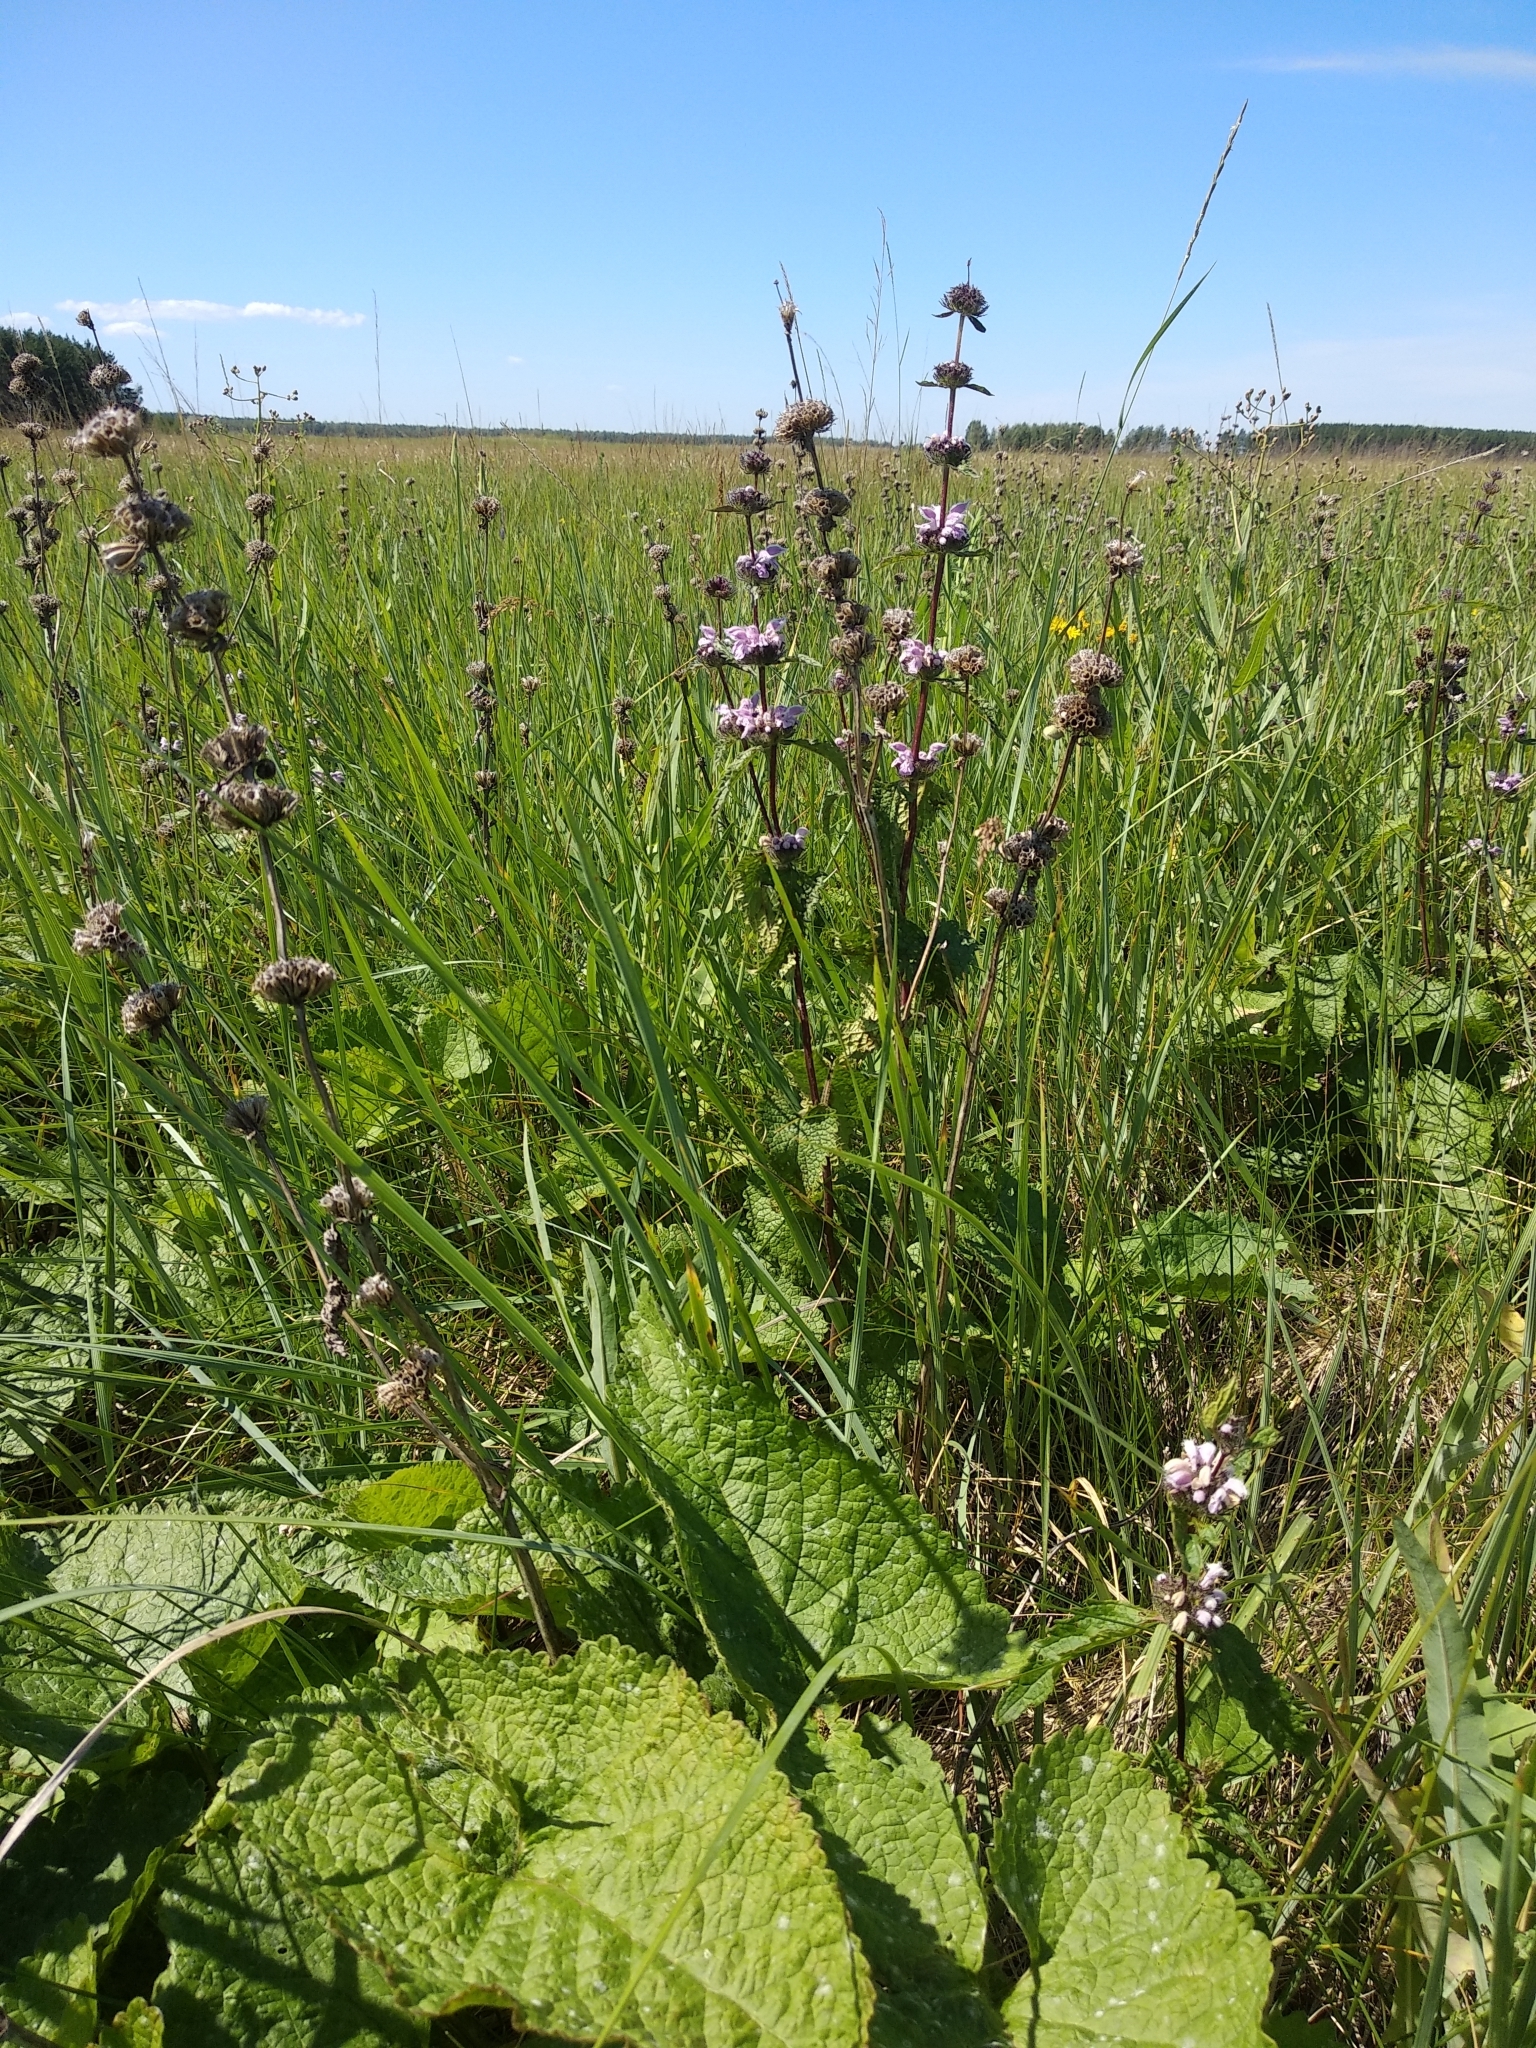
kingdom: Plantae
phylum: Tracheophyta
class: Magnoliopsida
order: Lamiales
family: Lamiaceae
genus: Phlomoides
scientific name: Phlomoides tuberosa
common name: Tuberous jerusalem sage
